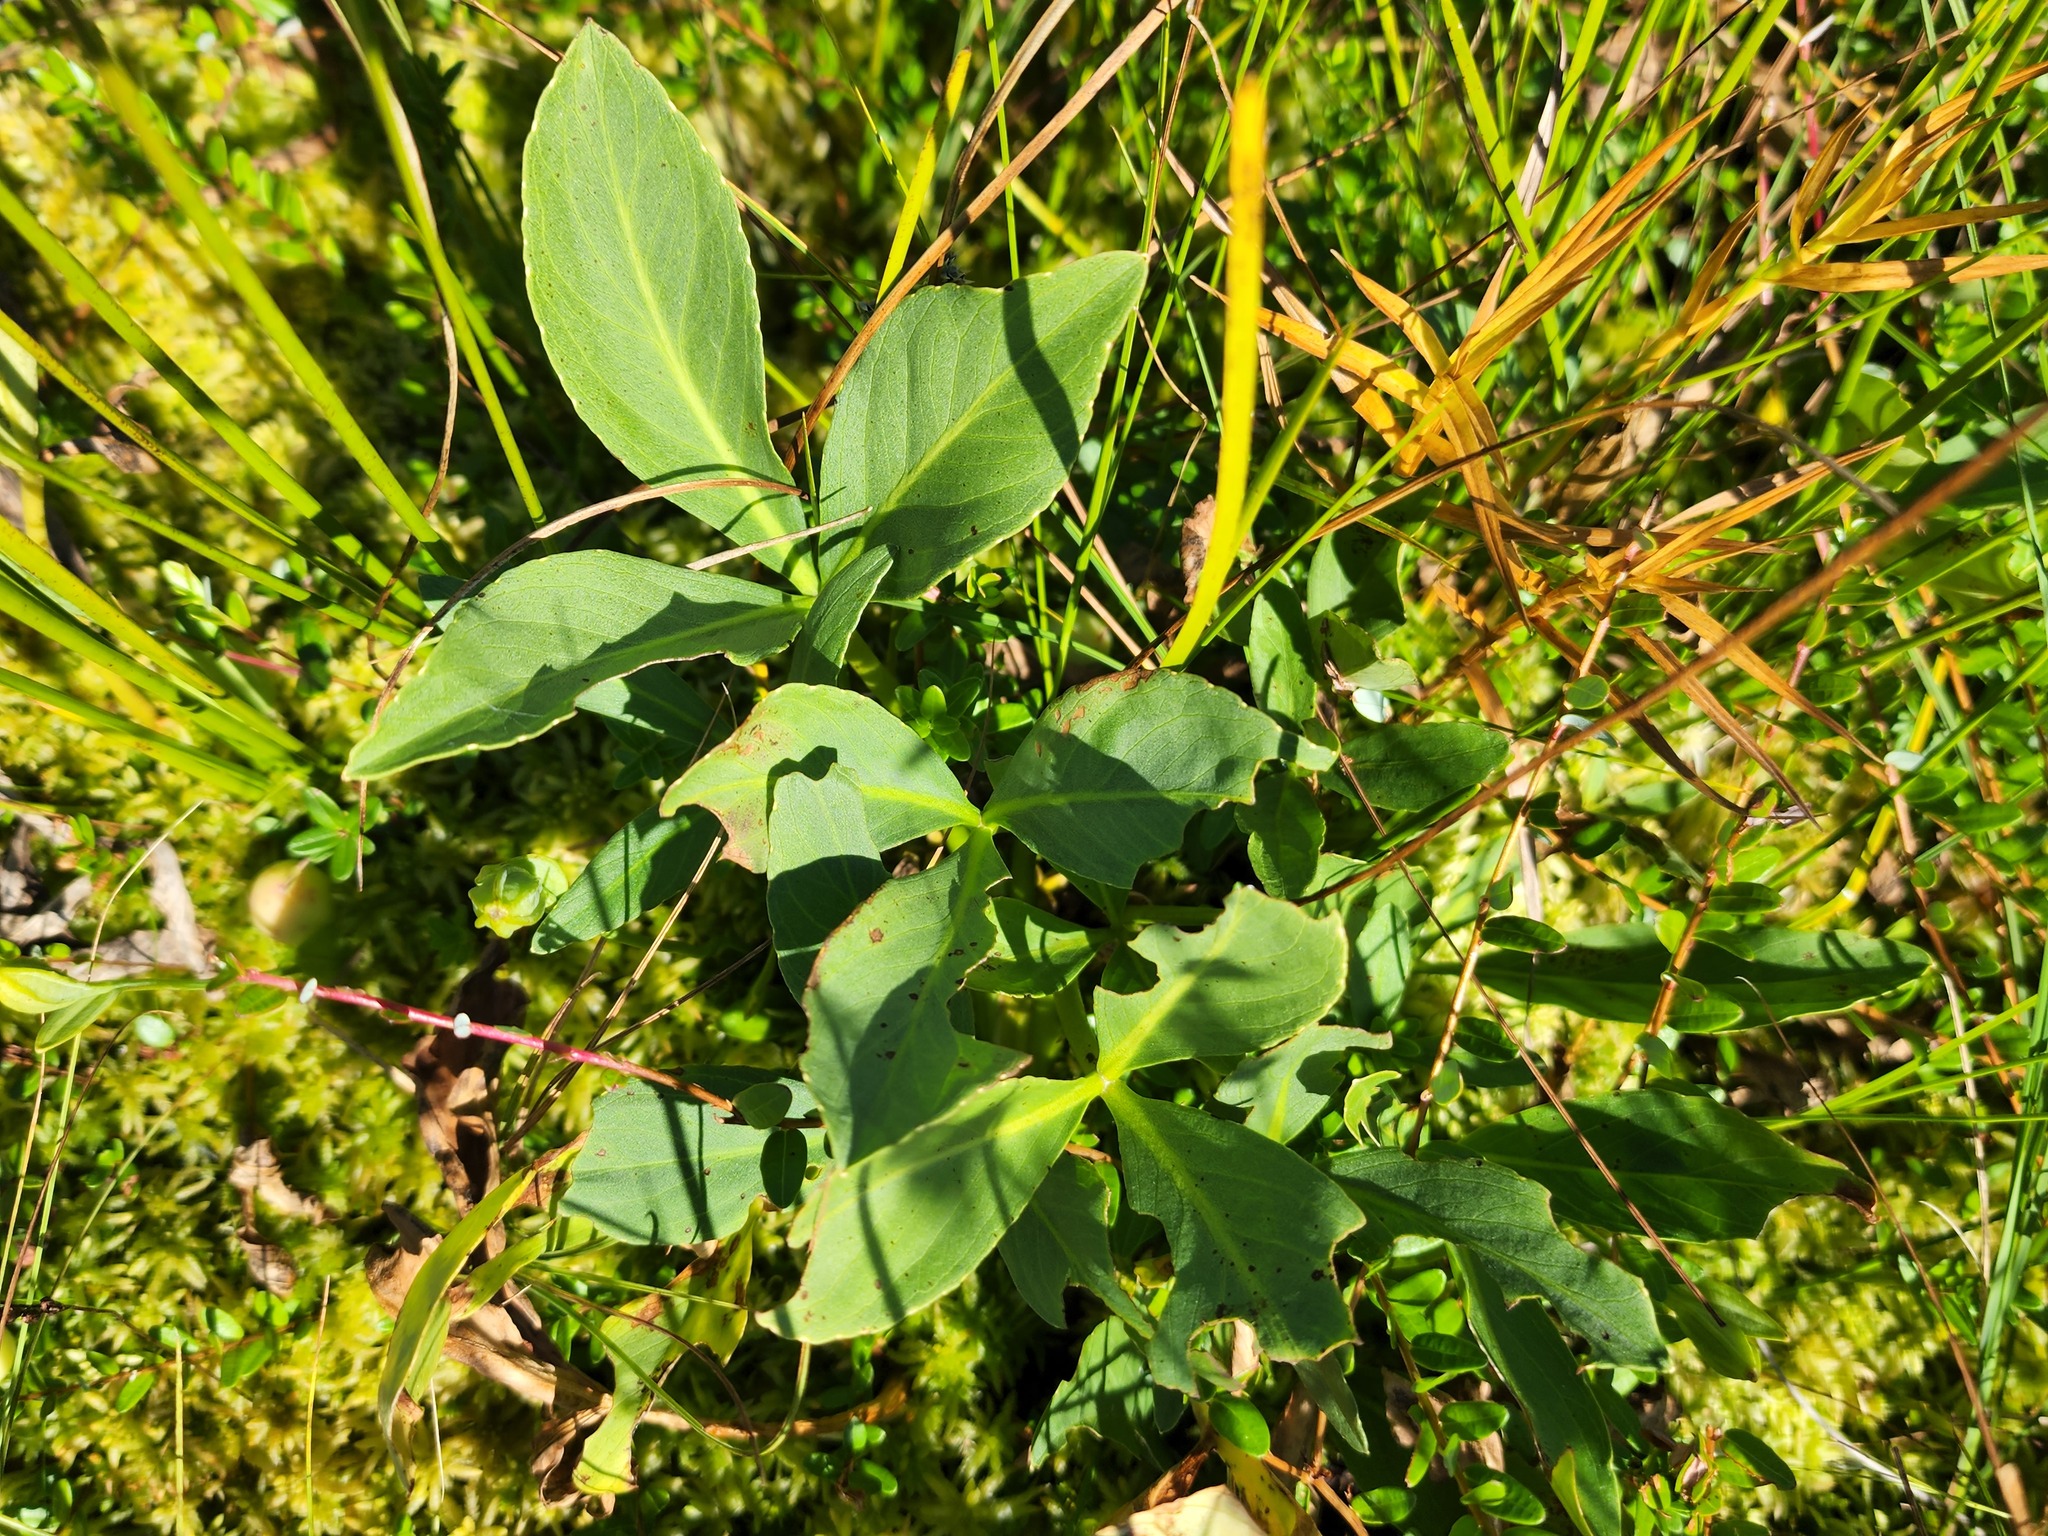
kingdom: Plantae
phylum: Tracheophyta
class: Magnoliopsida
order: Asterales
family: Menyanthaceae
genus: Menyanthes
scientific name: Menyanthes trifoliata
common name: Bogbean
